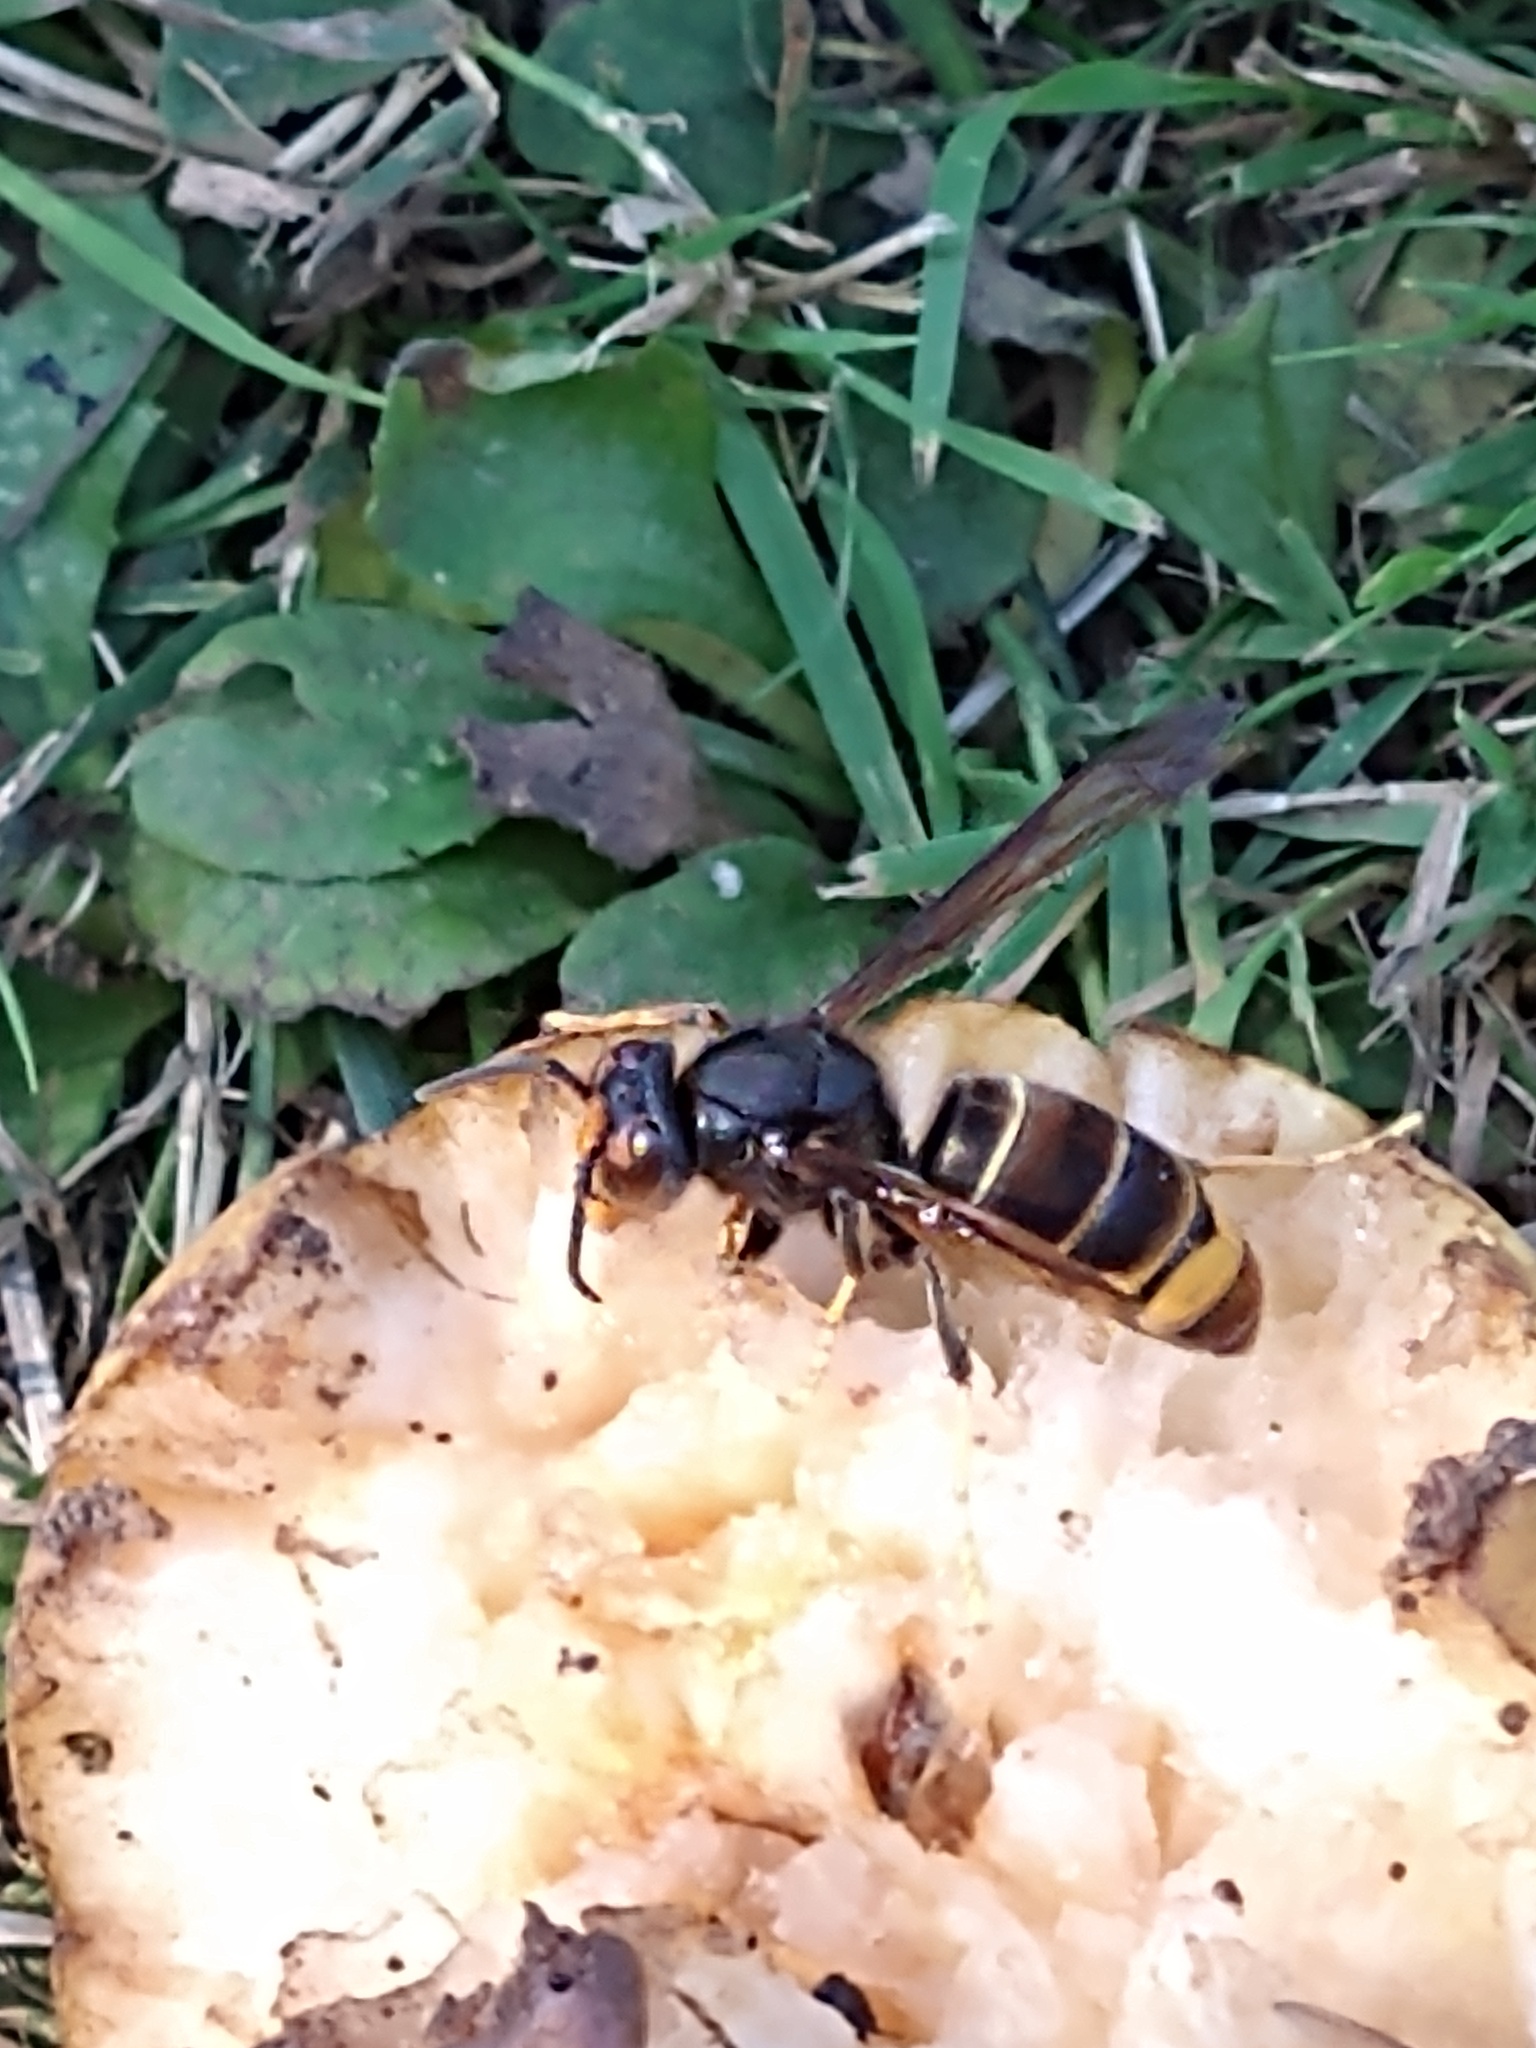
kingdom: Animalia
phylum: Arthropoda
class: Insecta
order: Hymenoptera
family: Vespidae
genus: Vespa
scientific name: Vespa velutina
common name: Asian hornet
